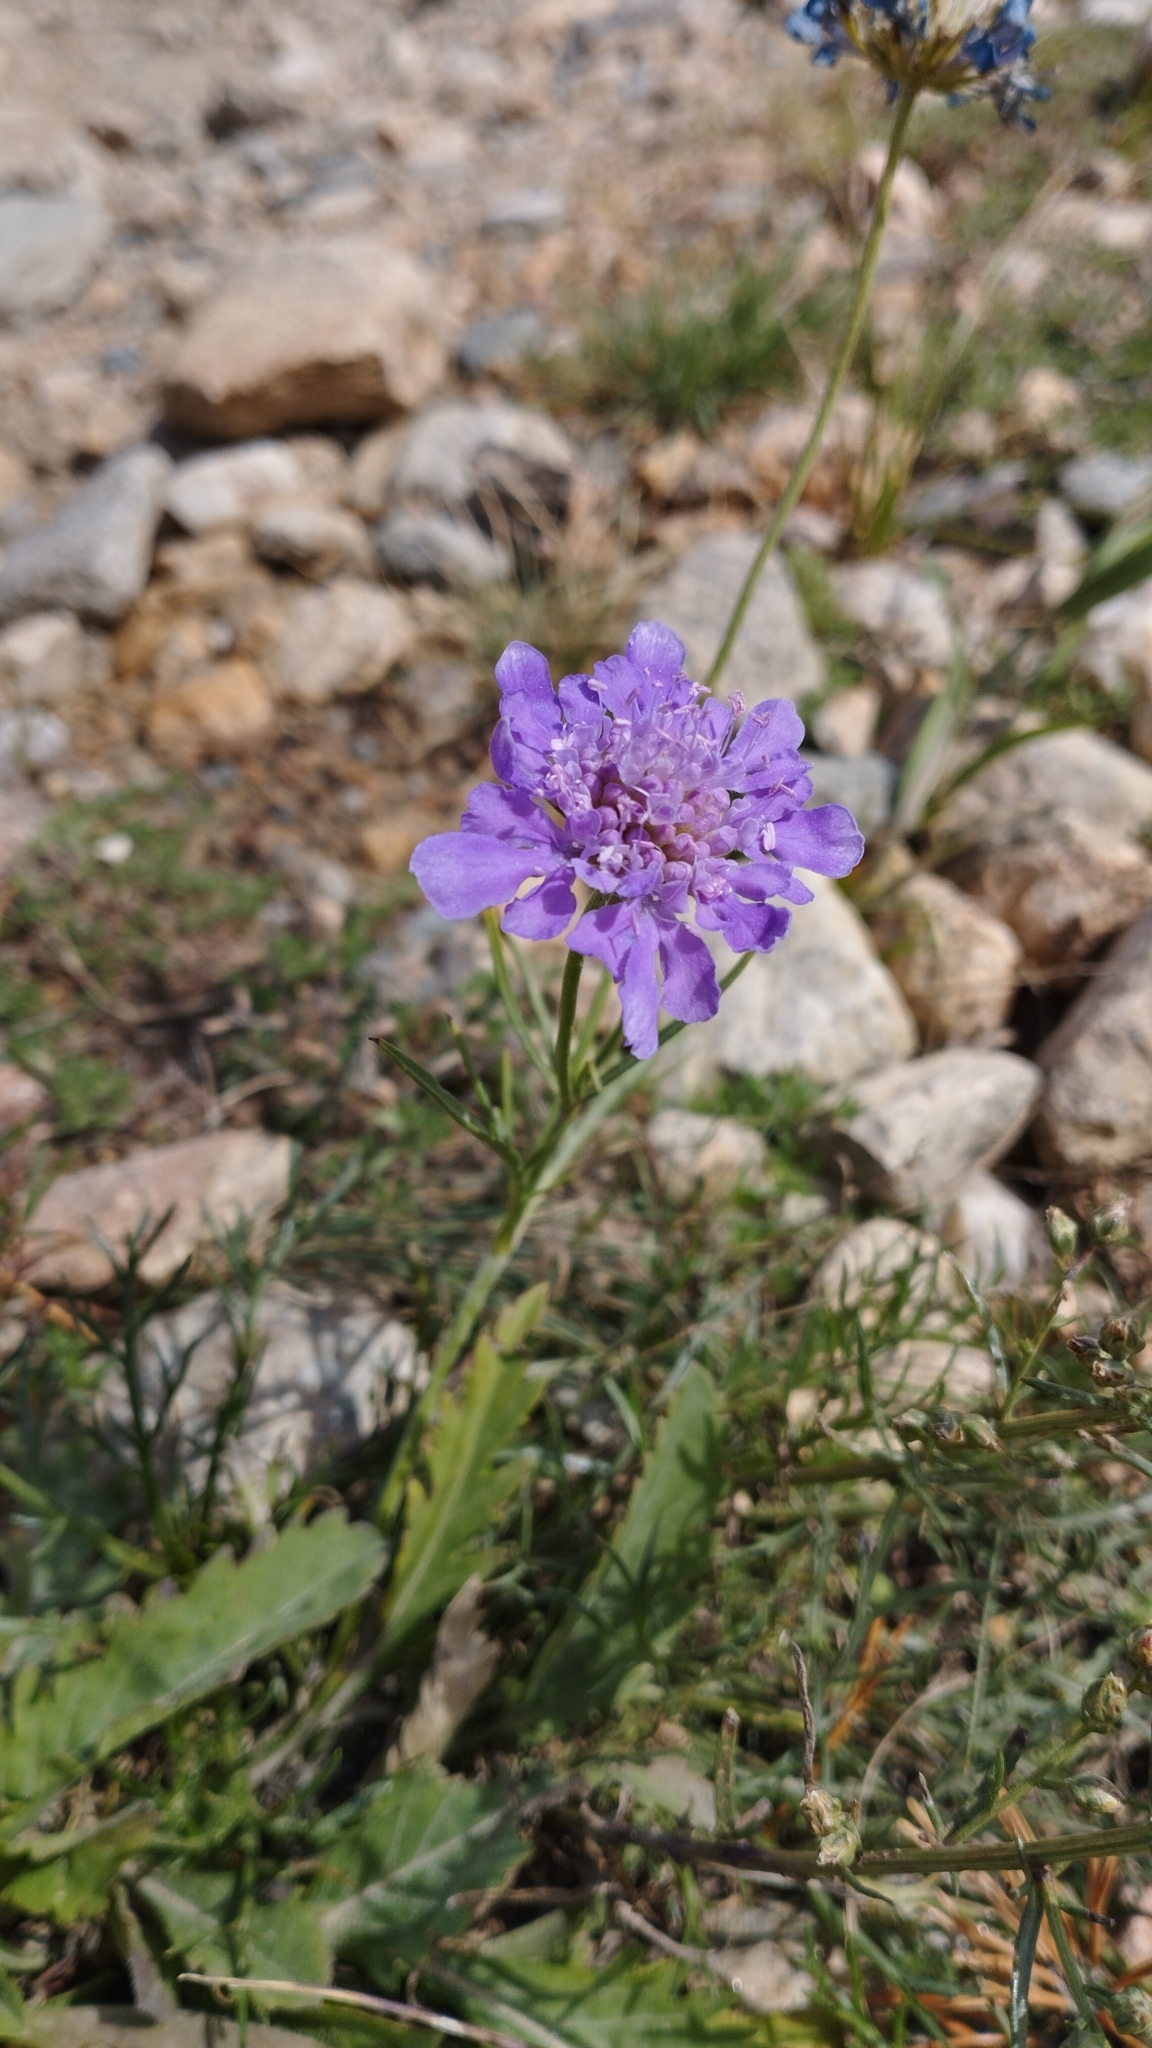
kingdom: Plantae
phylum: Tracheophyta
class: Magnoliopsida
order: Dipsacales
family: Caprifoliaceae
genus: Scabiosa
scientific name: Scabiosa comosa
